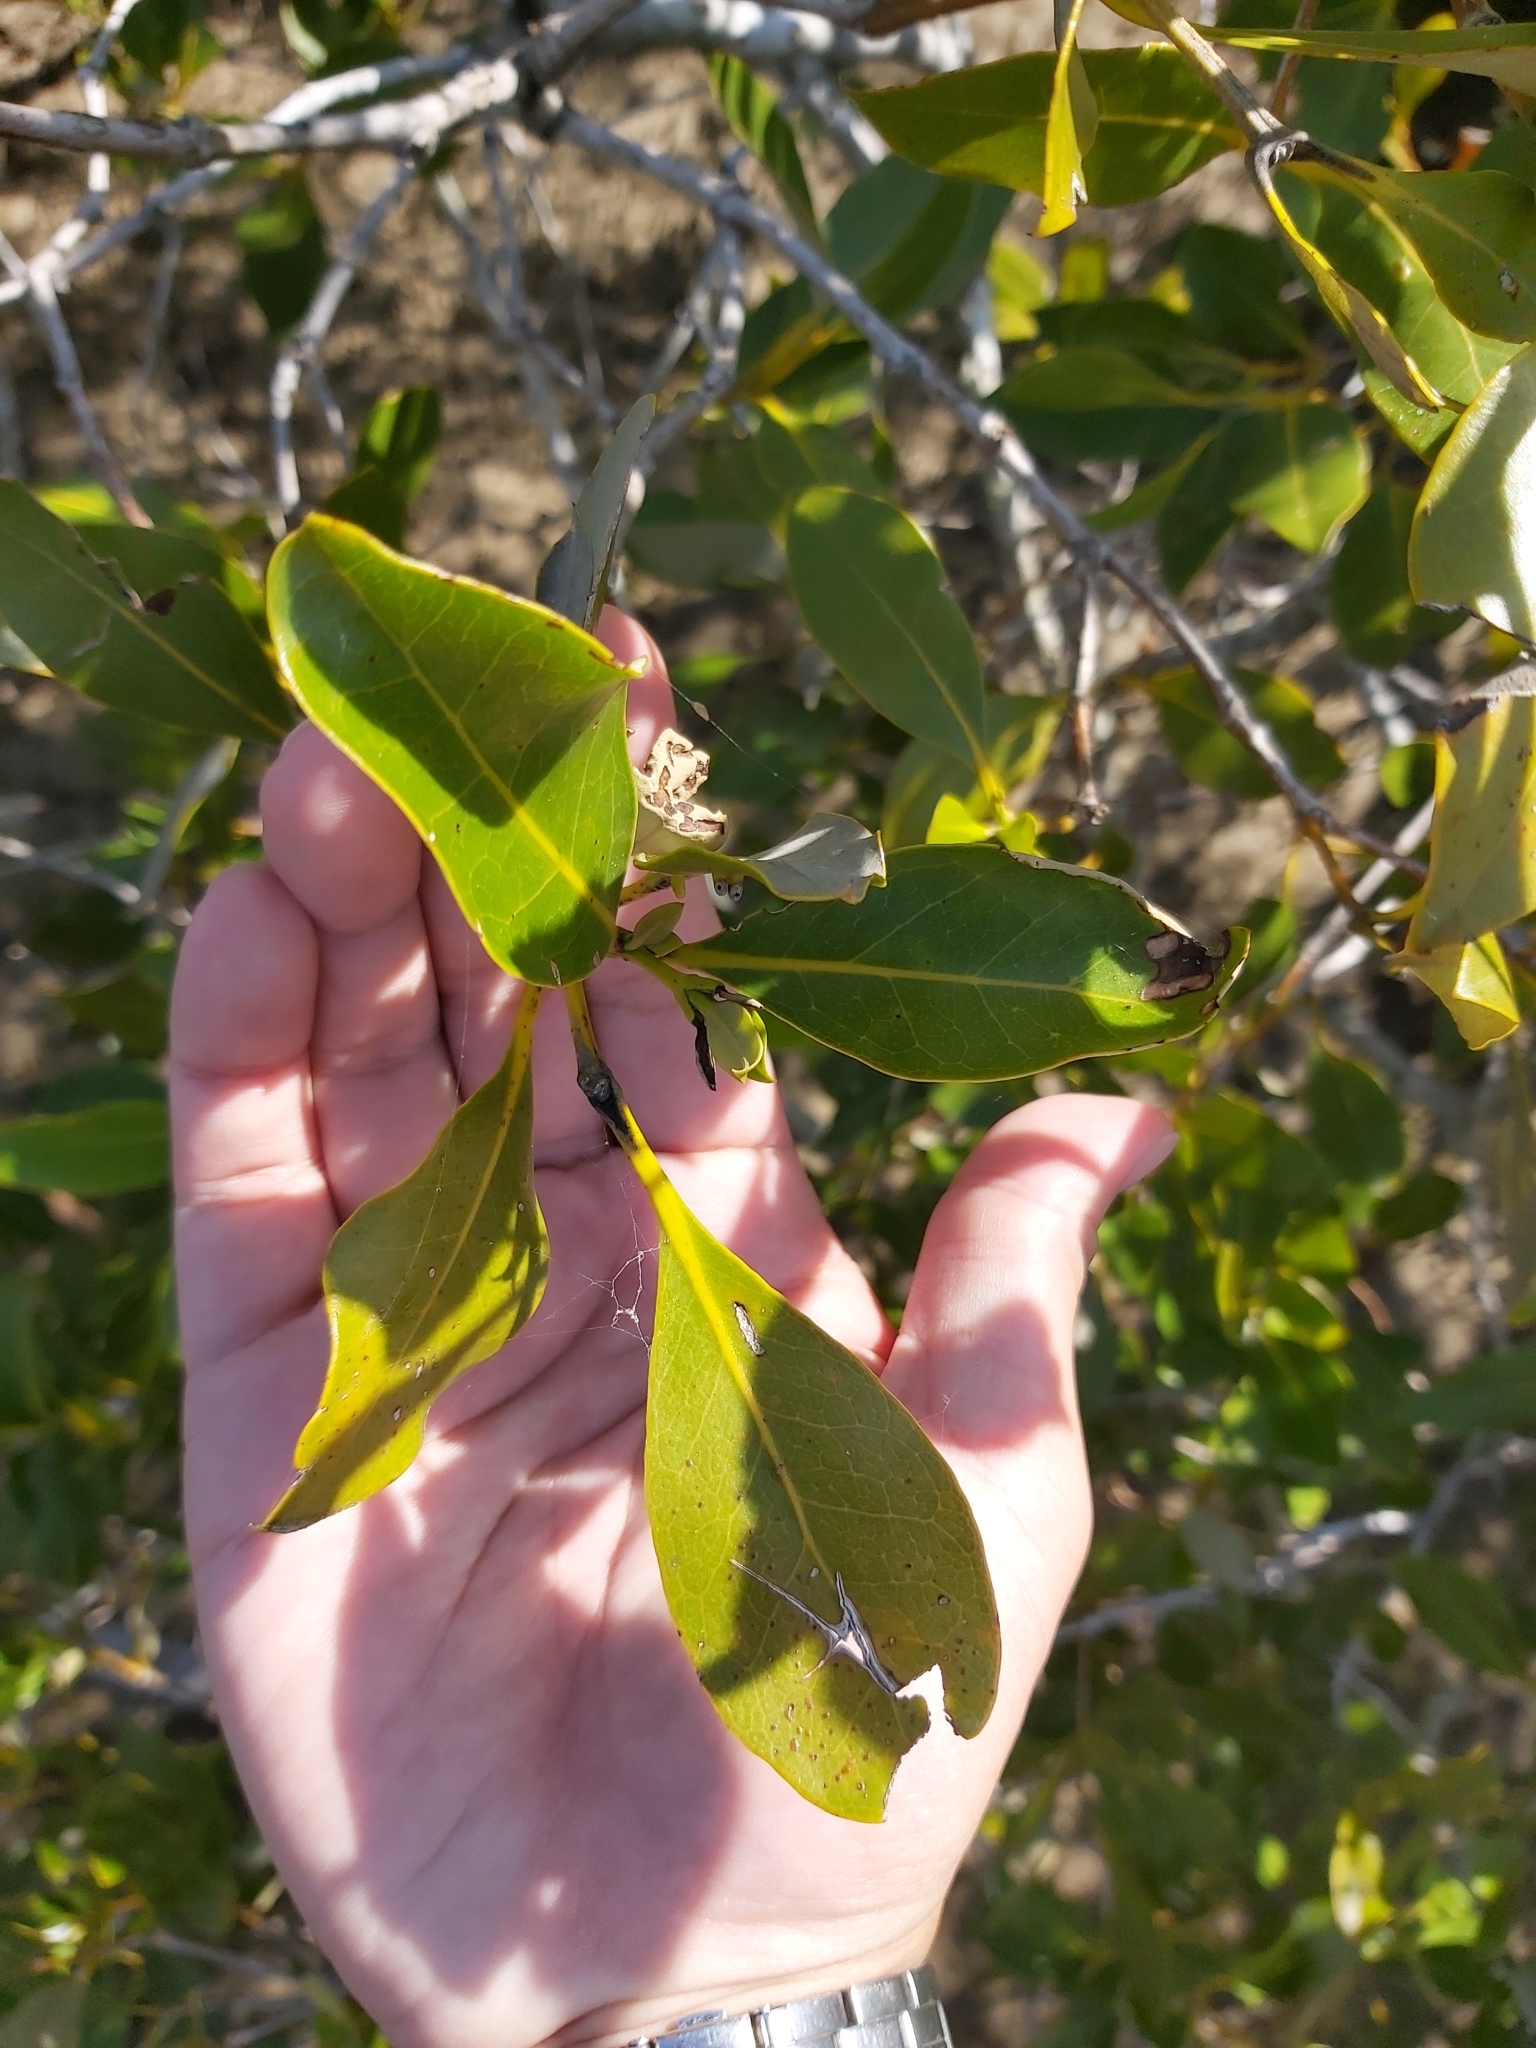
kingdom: Plantae
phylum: Tracheophyta
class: Magnoliopsida
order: Lamiales
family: Acanthaceae
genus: Avicennia
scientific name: Avicennia marina
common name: Gray mangrove
